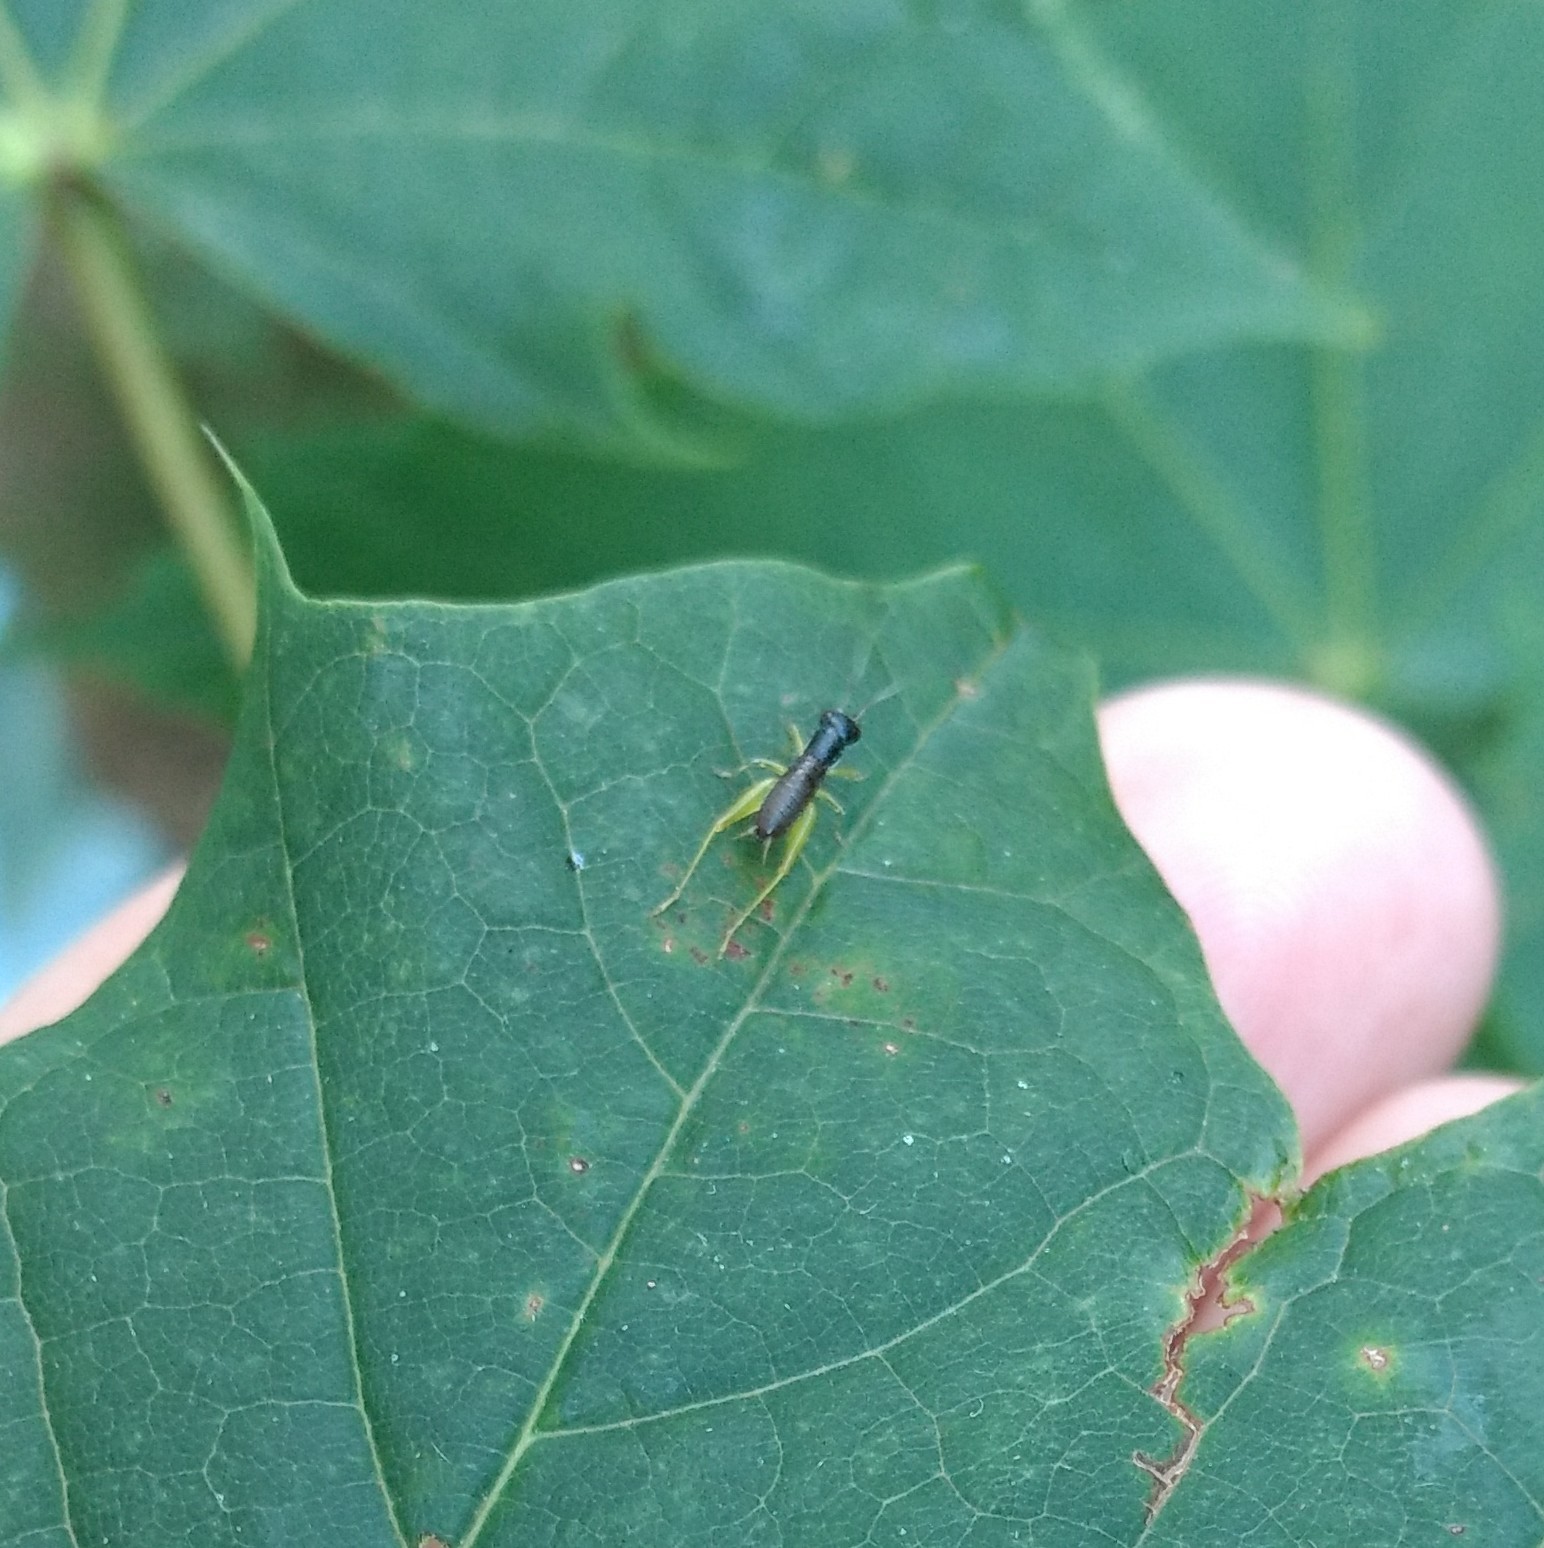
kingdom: Animalia
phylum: Arthropoda
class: Insecta
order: Orthoptera
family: Trigonidiidae
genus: Phyllopalpus
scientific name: Phyllopalpus pulchellus
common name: Handsome trig
